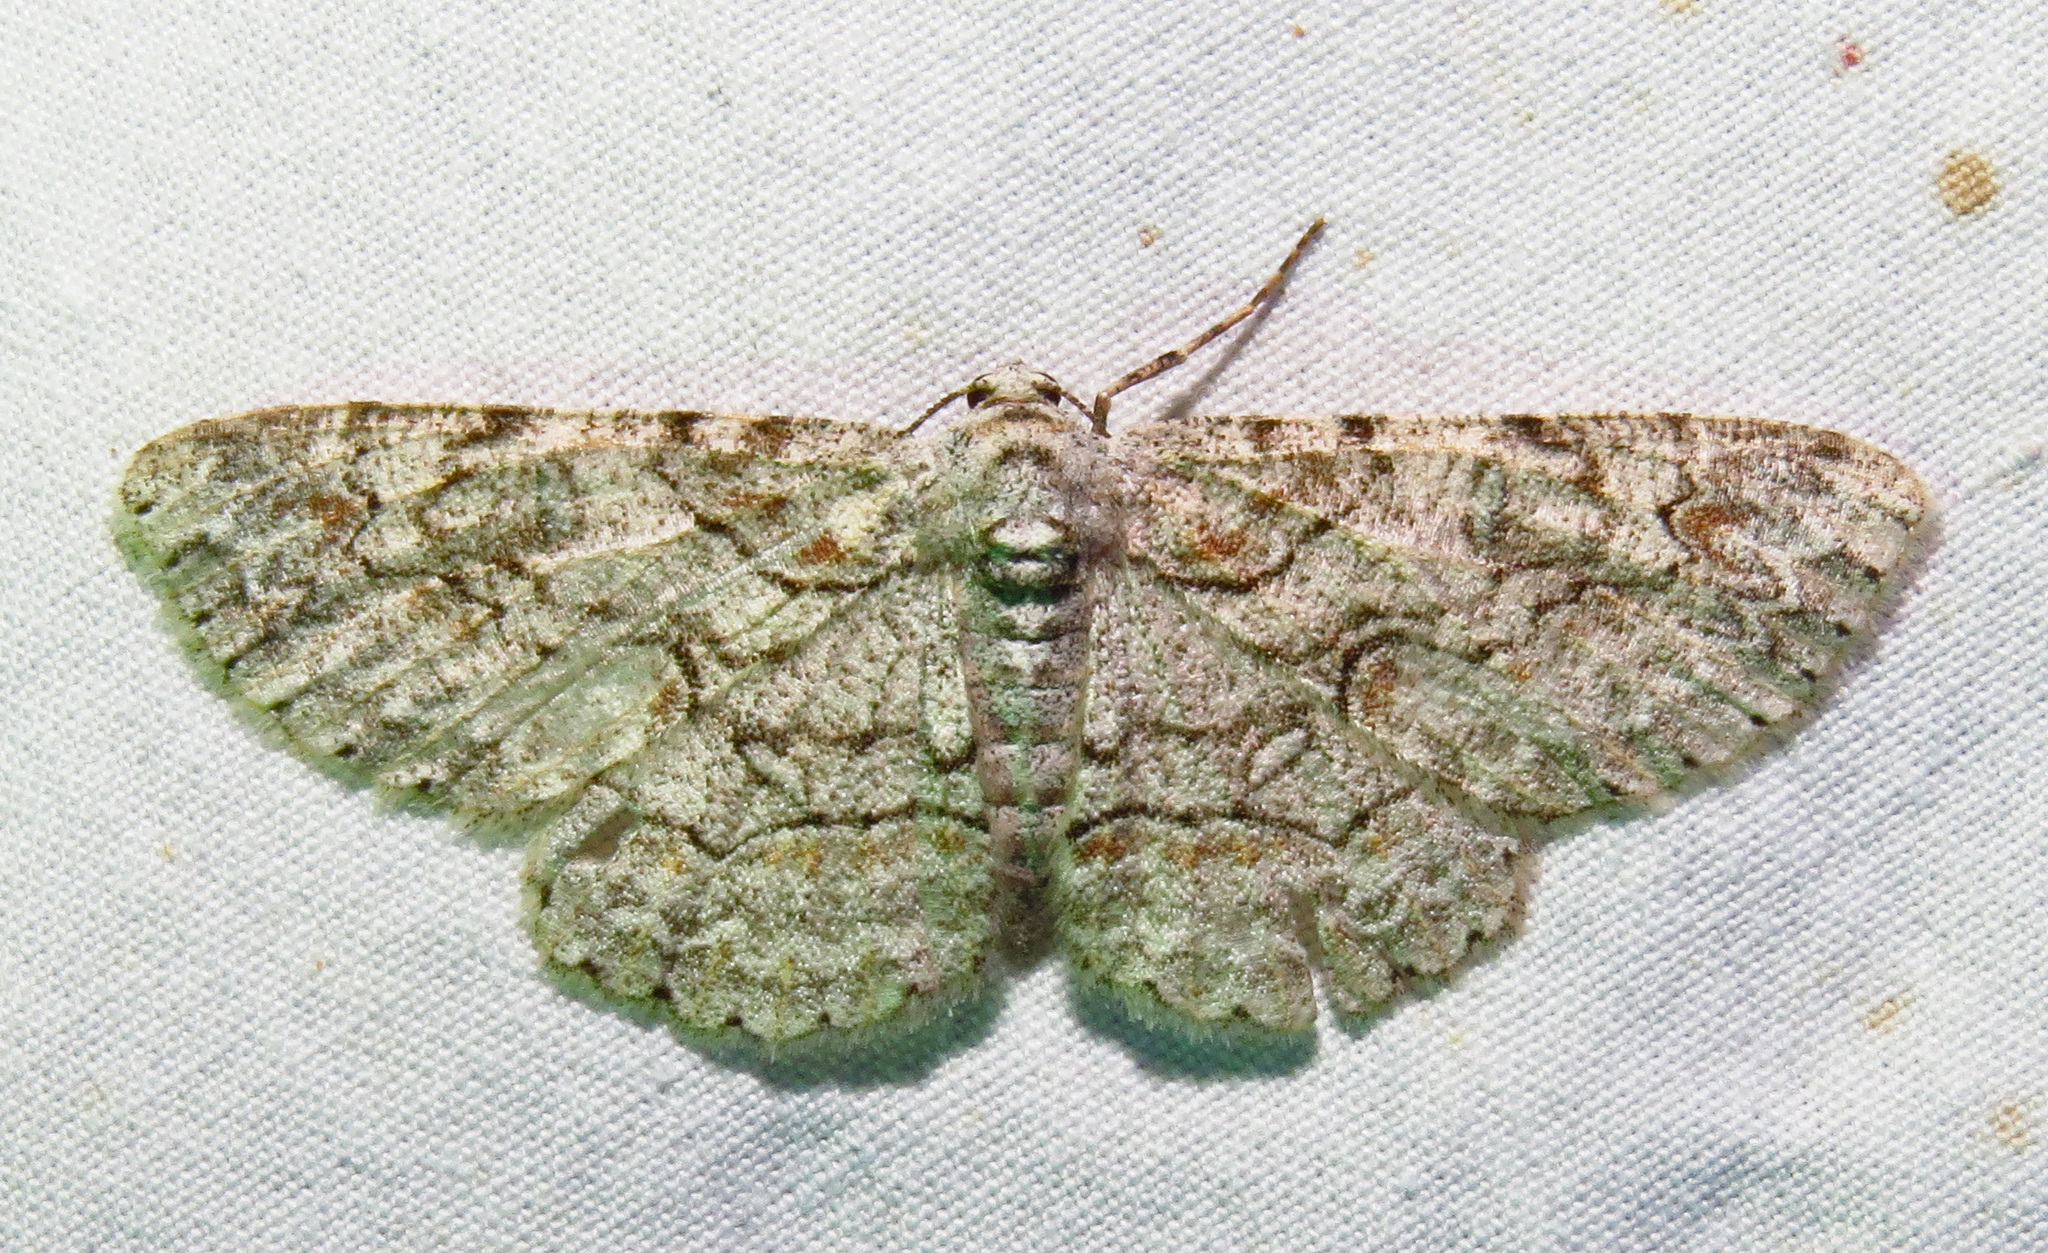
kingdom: Animalia
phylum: Arthropoda
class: Insecta
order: Lepidoptera
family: Geometridae
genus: Iridopsis
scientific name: Iridopsis defectaria
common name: Brown-shaded gray
